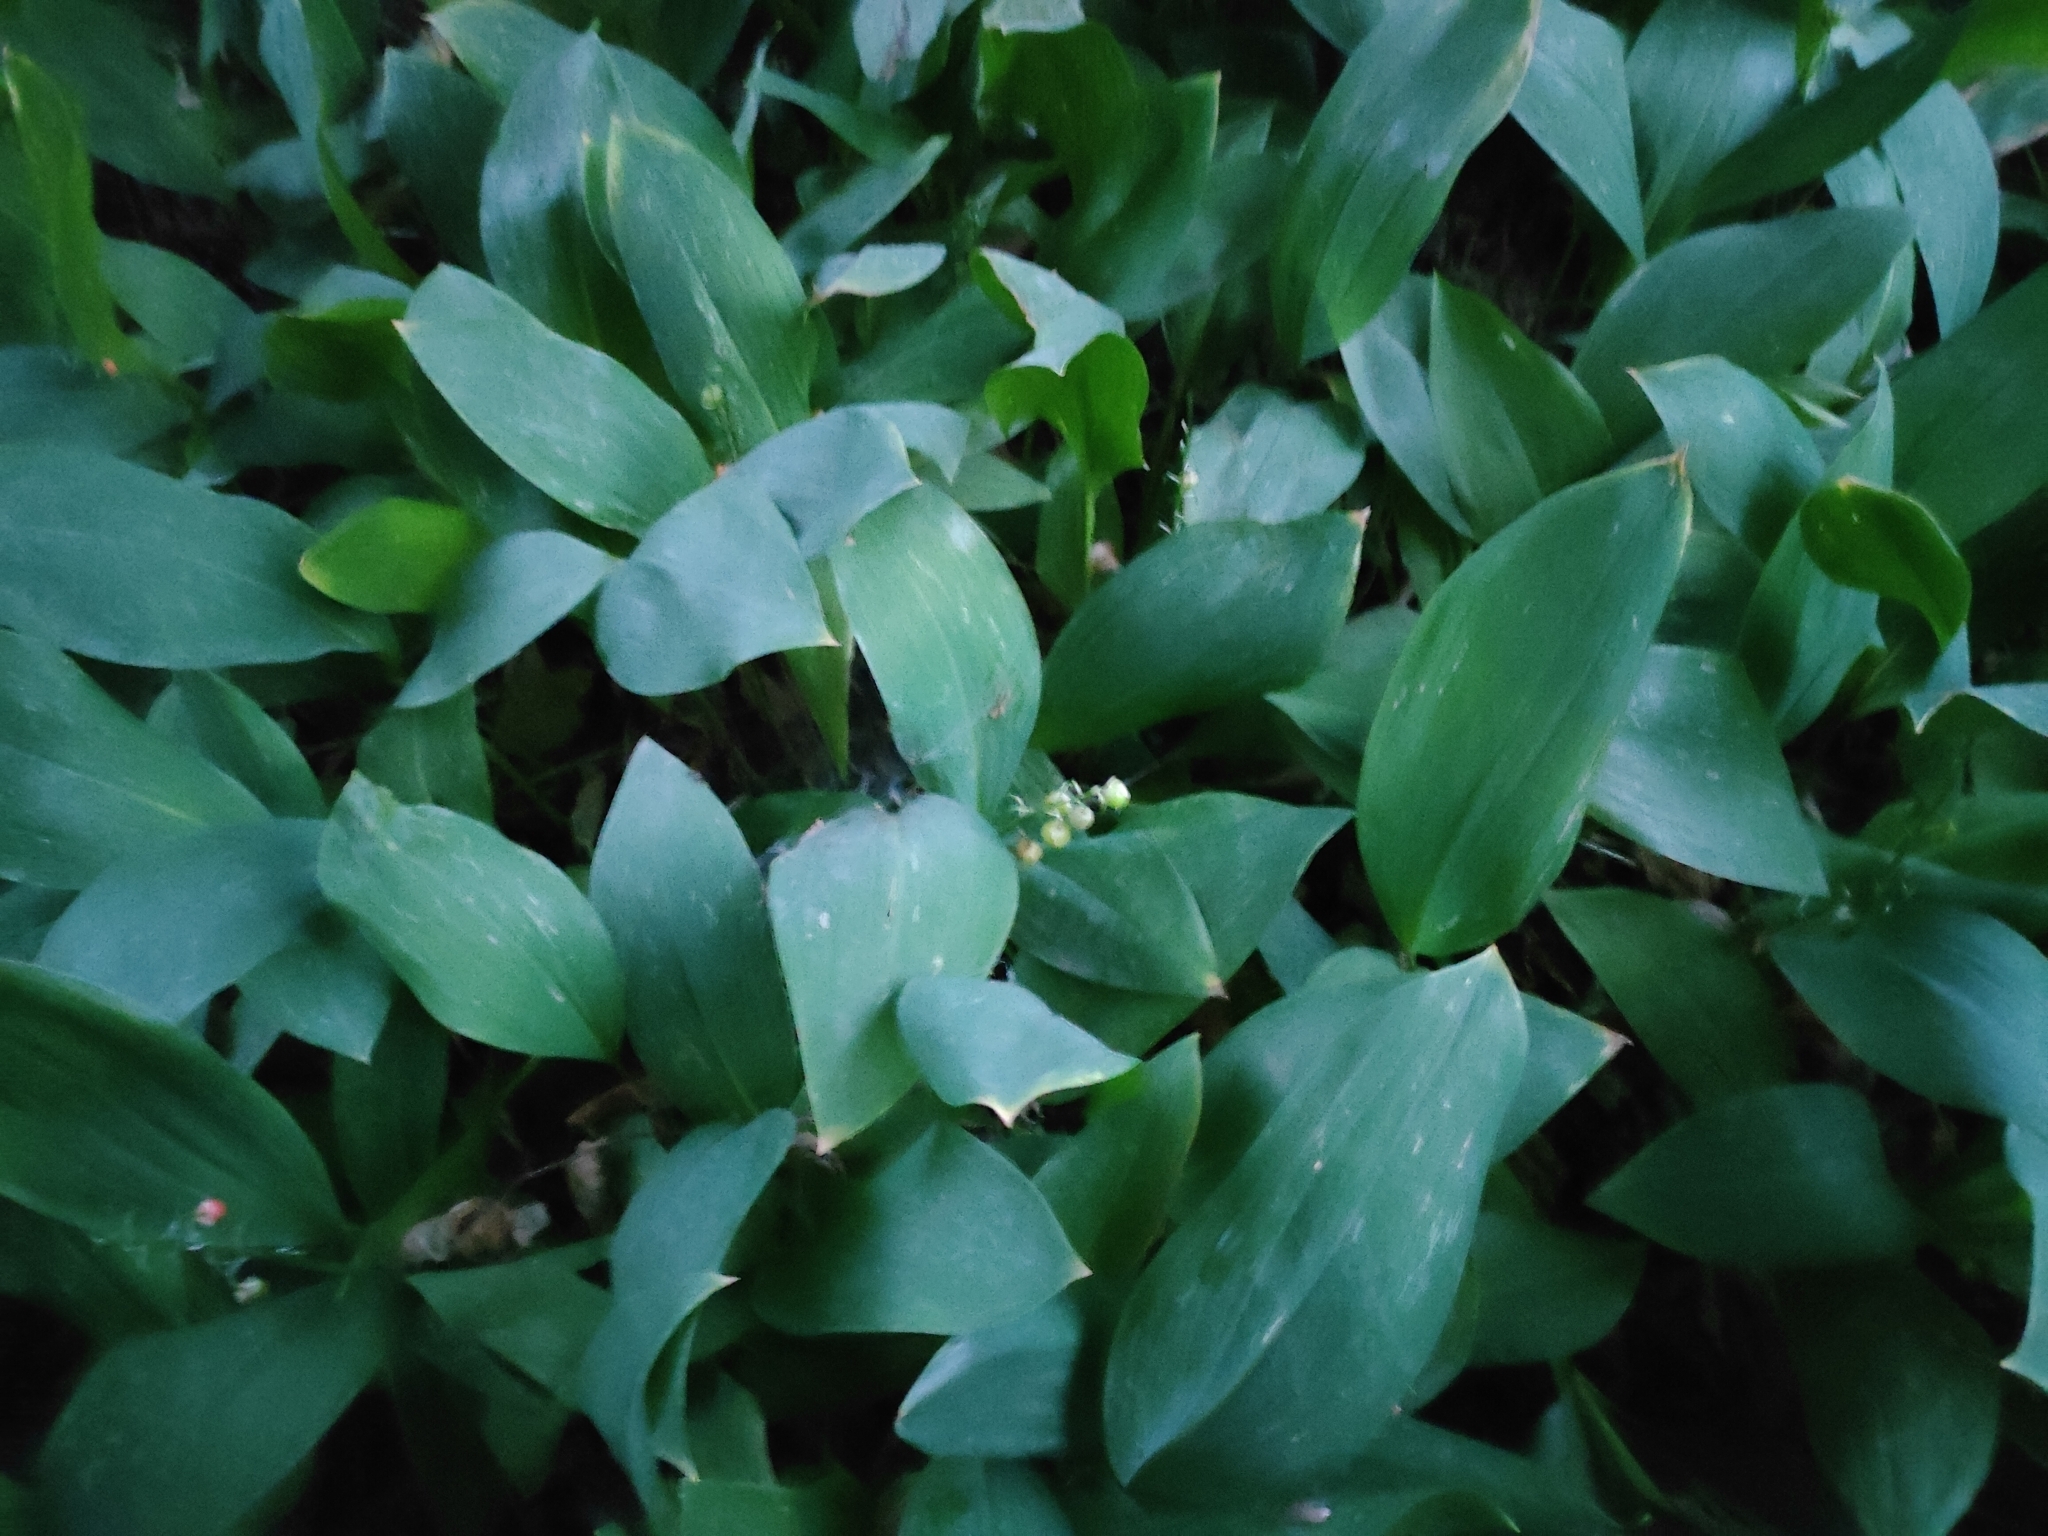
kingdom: Plantae
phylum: Tracheophyta
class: Liliopsida
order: Asparagales
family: Asparagaceae
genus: Convallaria
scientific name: Convallaria majalis
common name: Lily-of-the-valley
